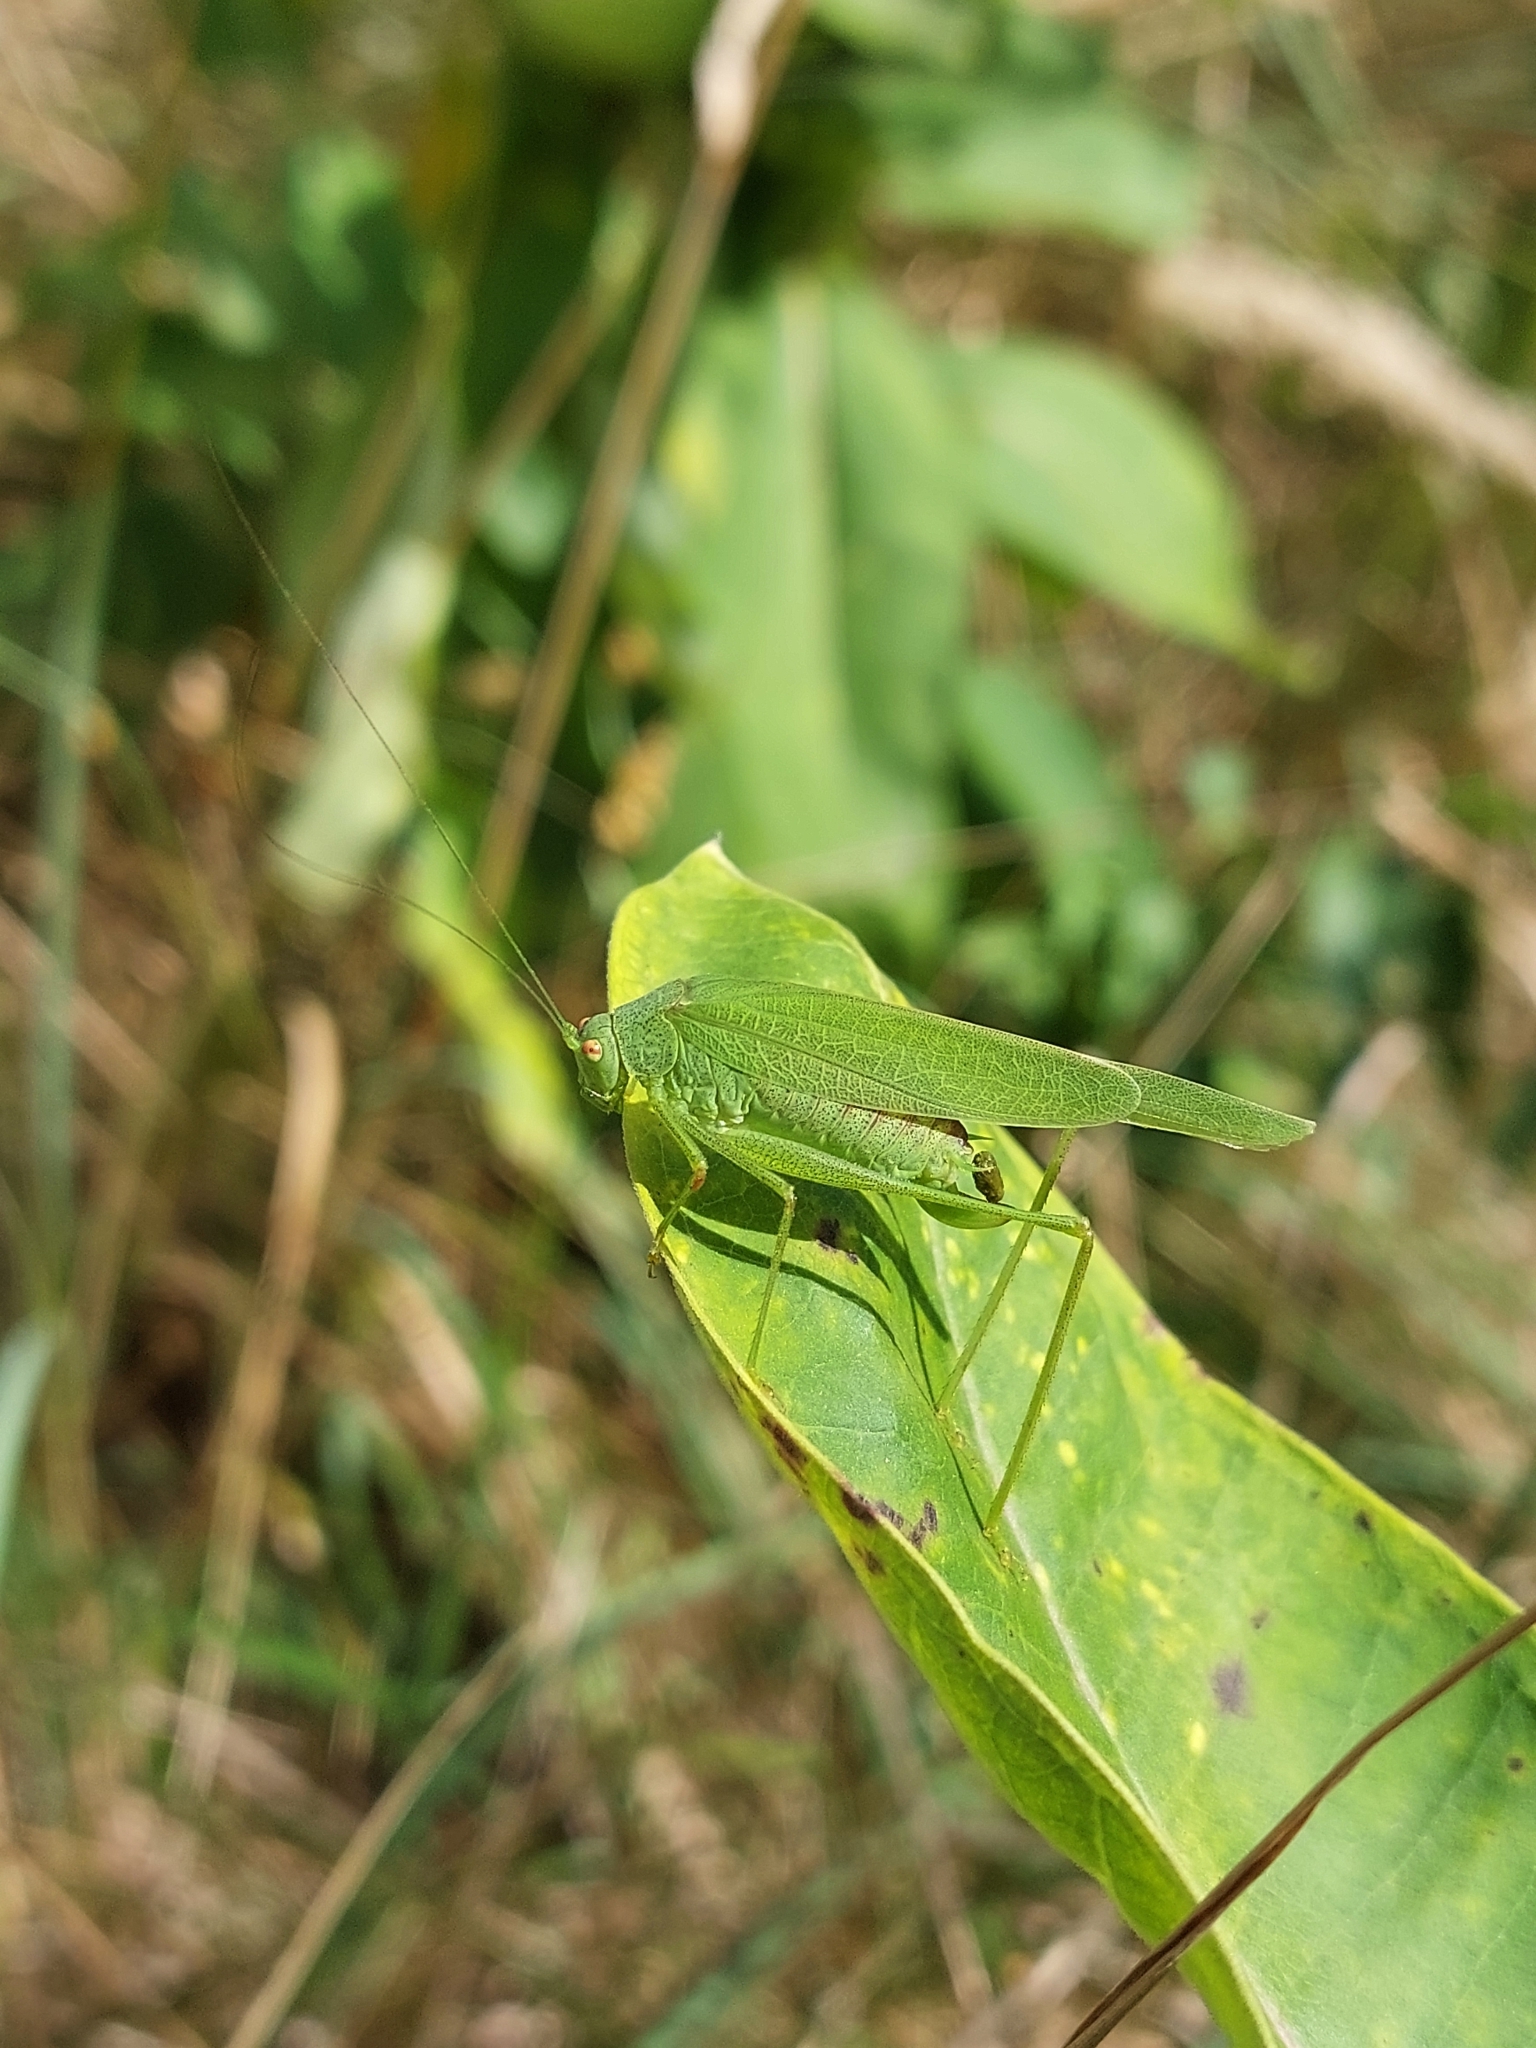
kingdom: Animalia
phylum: Arthropoda
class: Insecta
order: Orthoptera
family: Tettigoniidae
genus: Phaneroptera
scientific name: Phaneroptera nana
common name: Southern sickle bush-cricket
